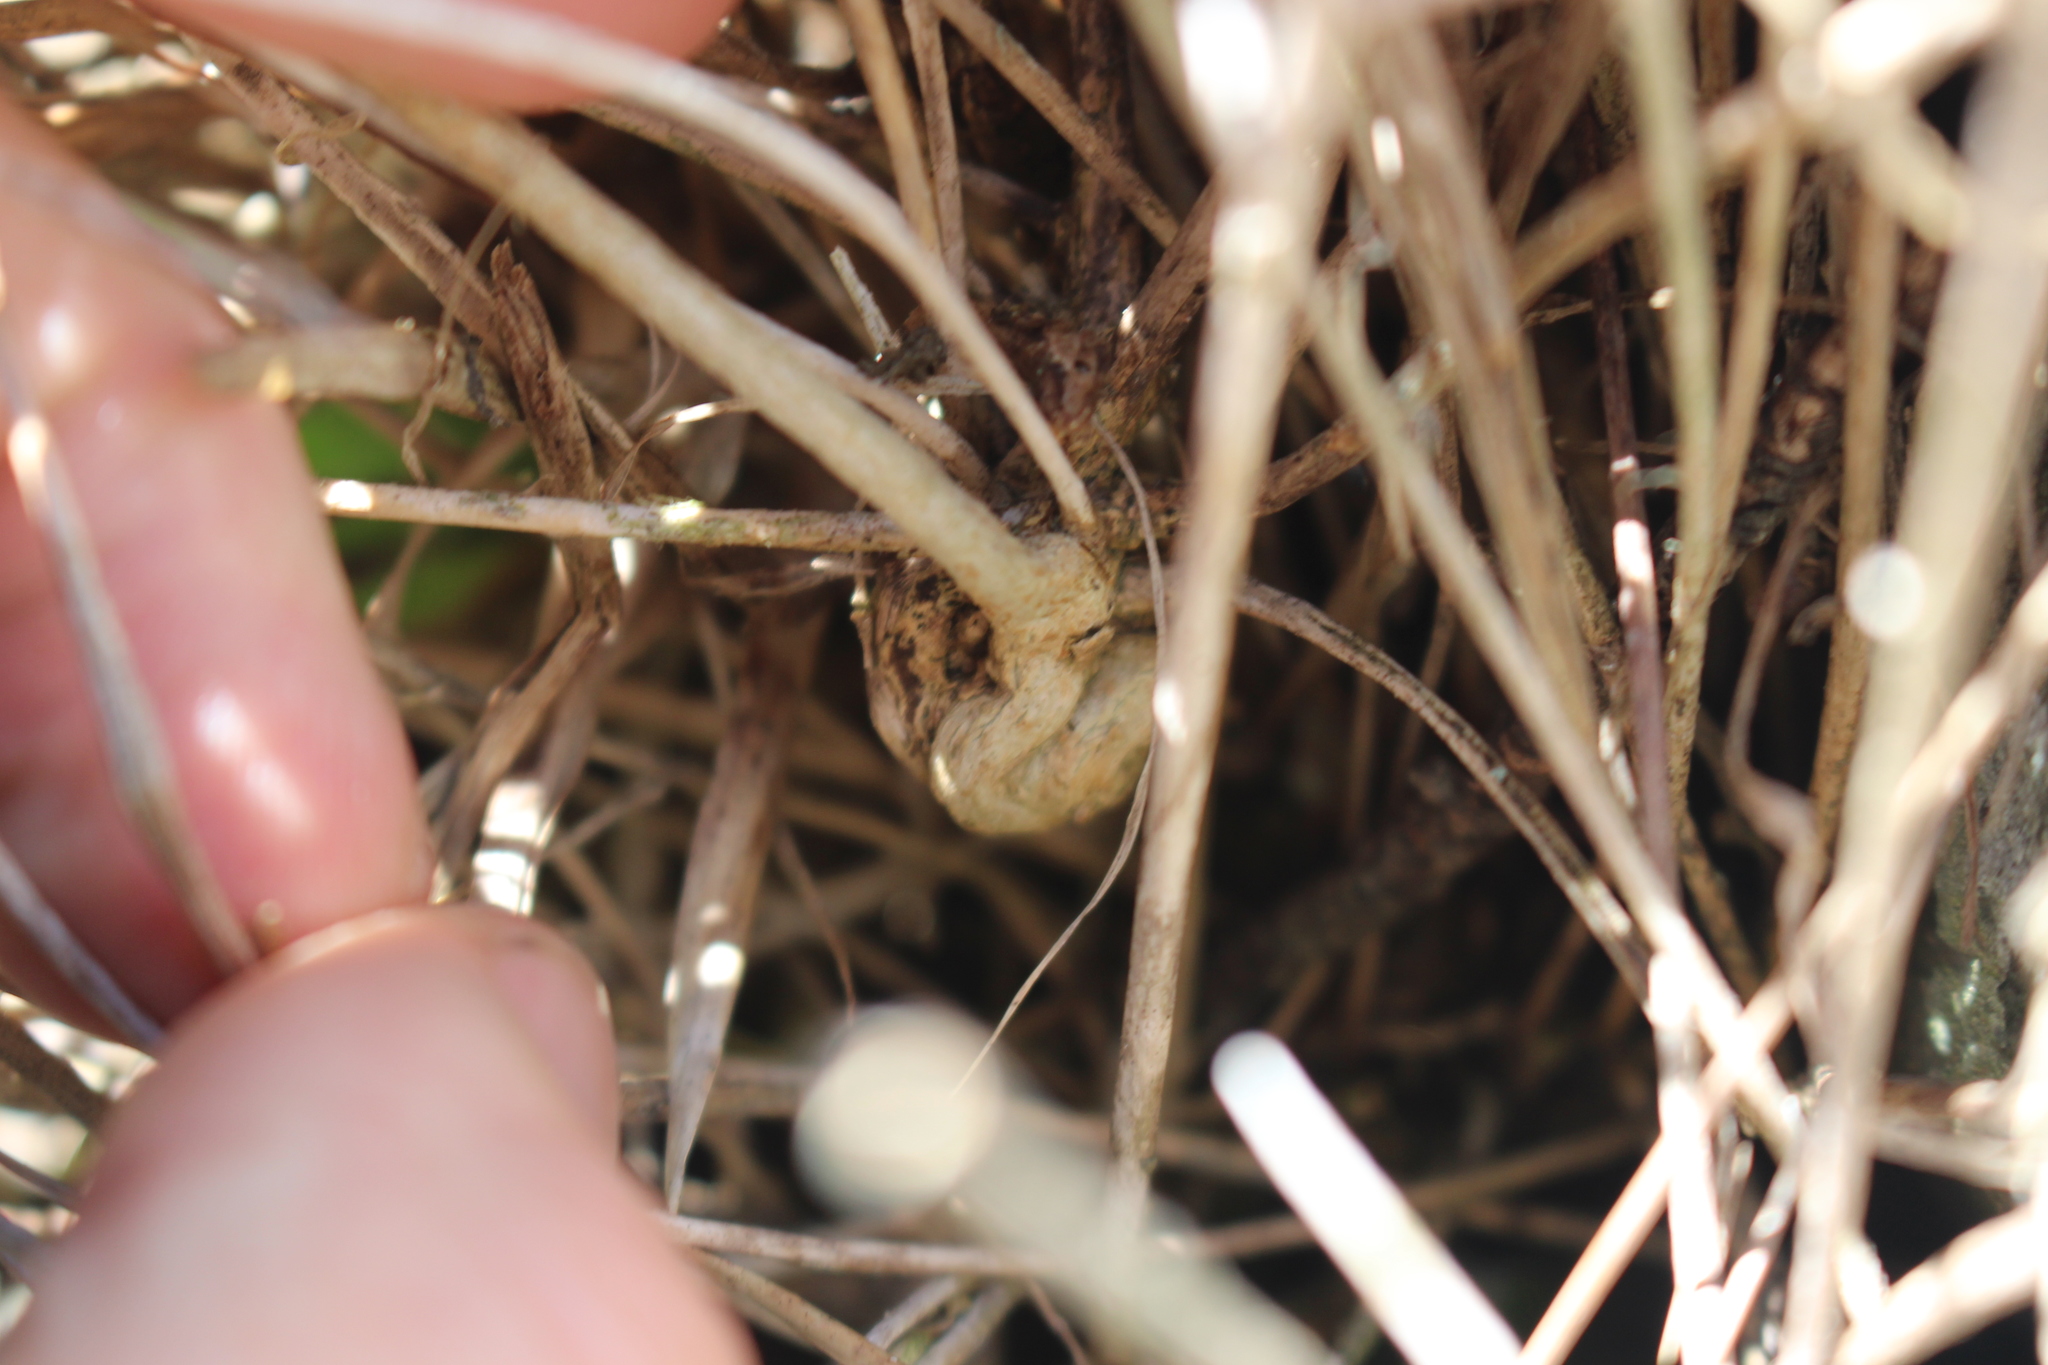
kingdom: Plantae
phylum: Tracheophyta
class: Magnoliopsida
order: Malpighiales
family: Linaceae
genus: Linum
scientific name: Linum monogynum
